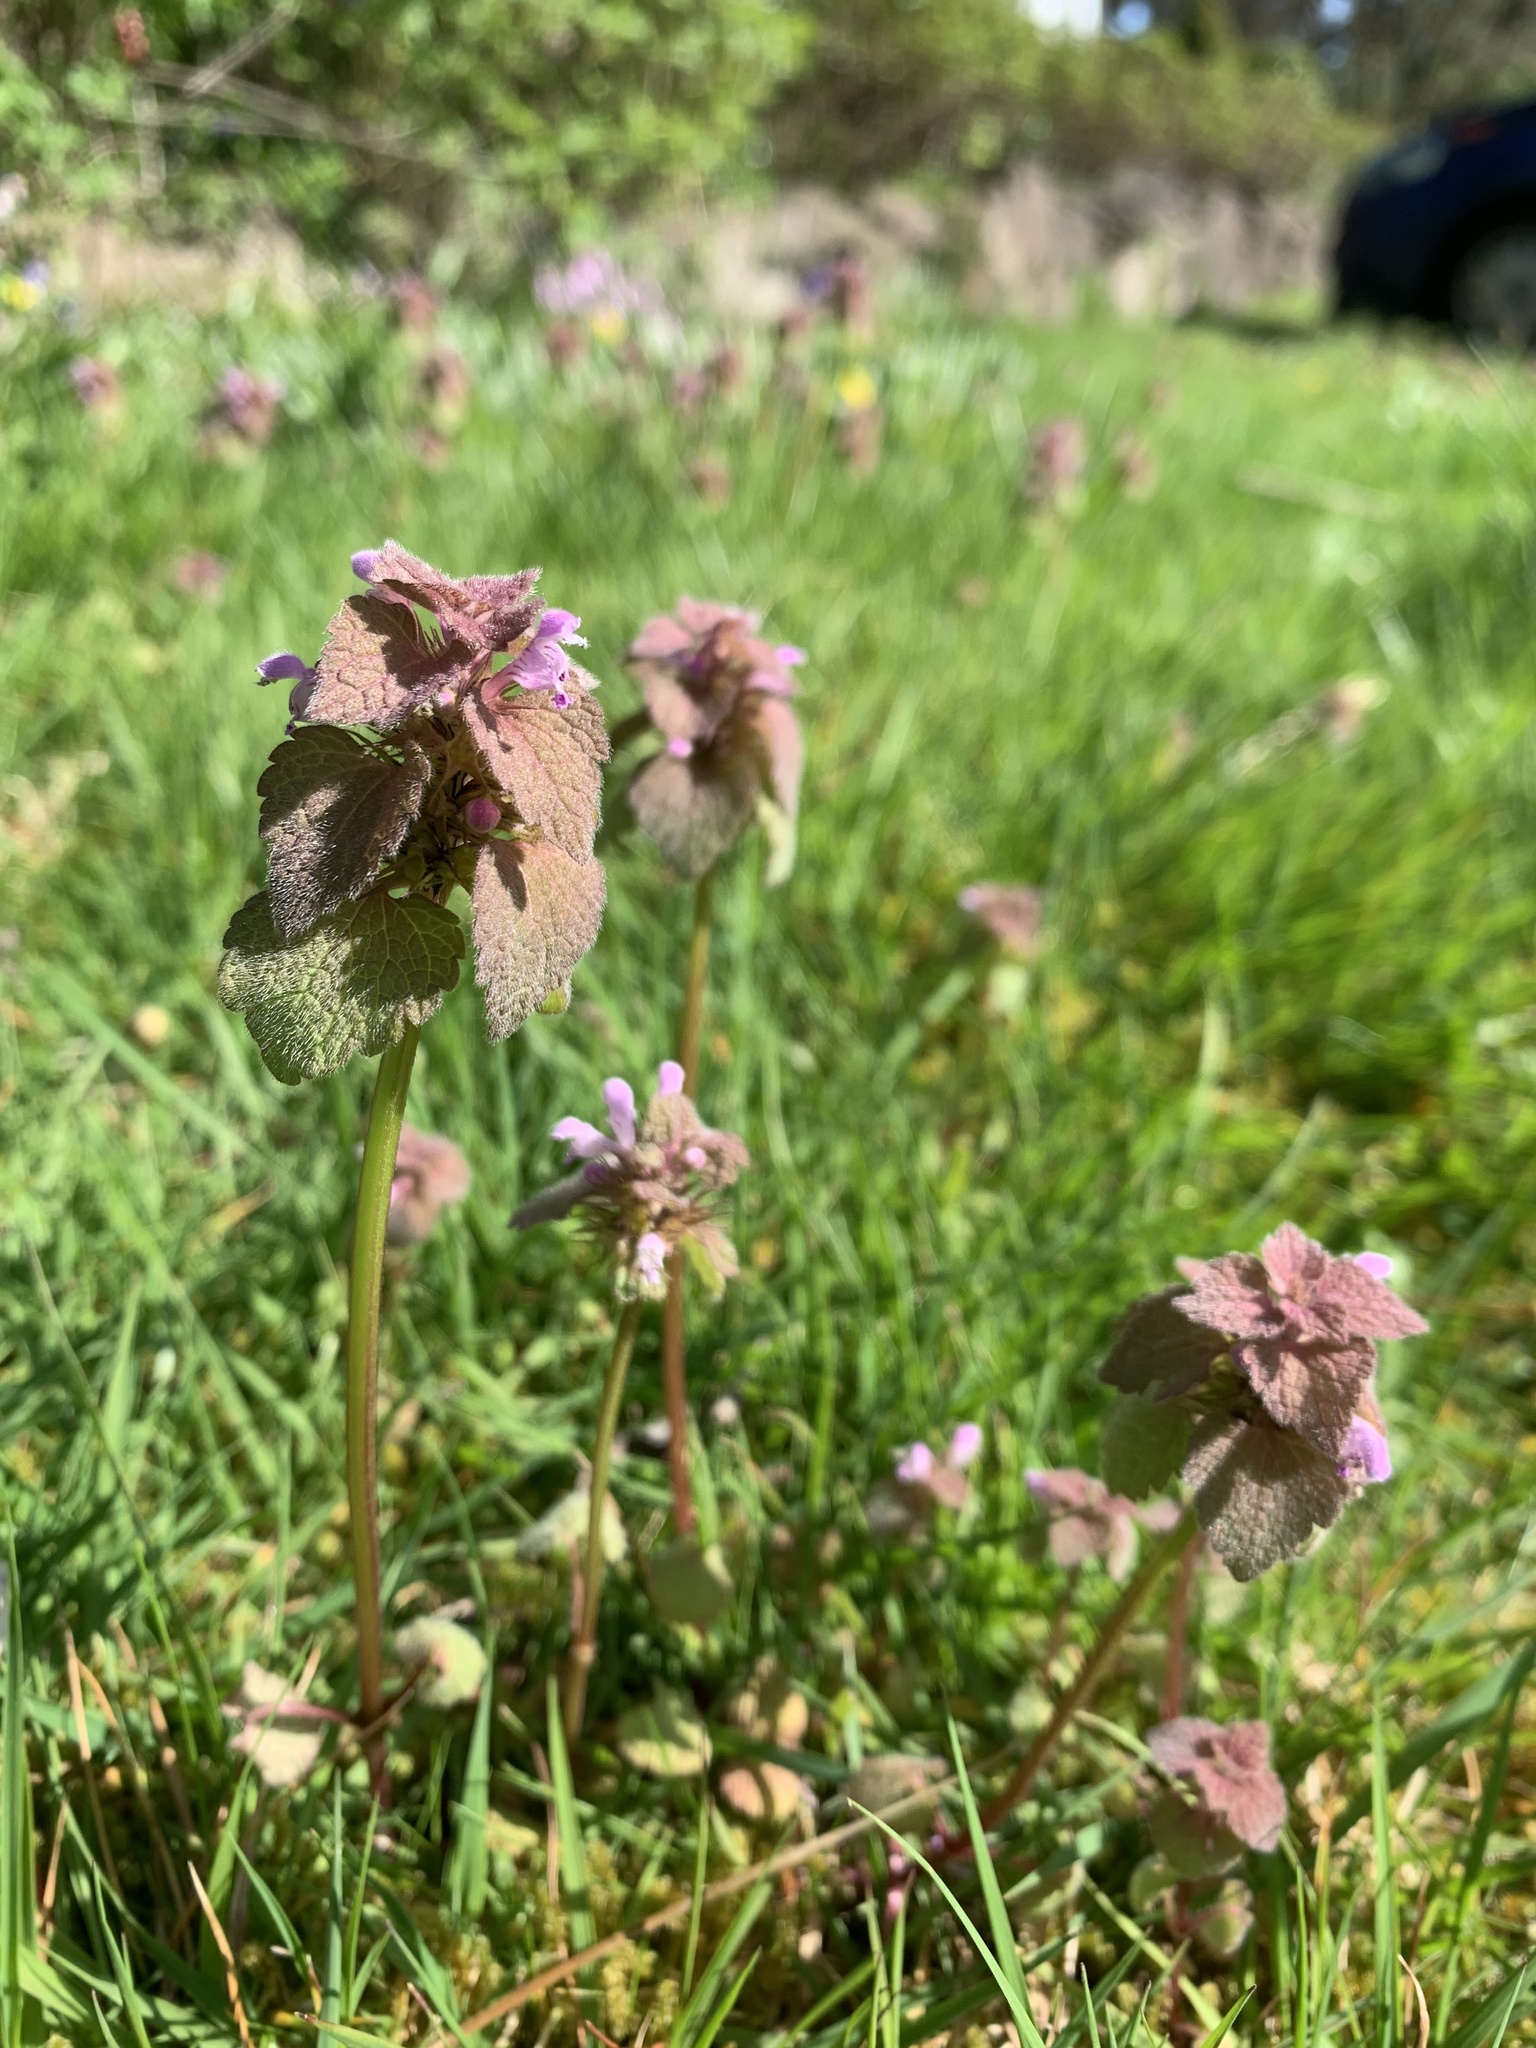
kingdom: Plantae
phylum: Tracheophyta
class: Magnoliopsida
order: Lamiales
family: Lamiaceae
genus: Lamium
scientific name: Lamium purpureum
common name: Red dead-nettle
